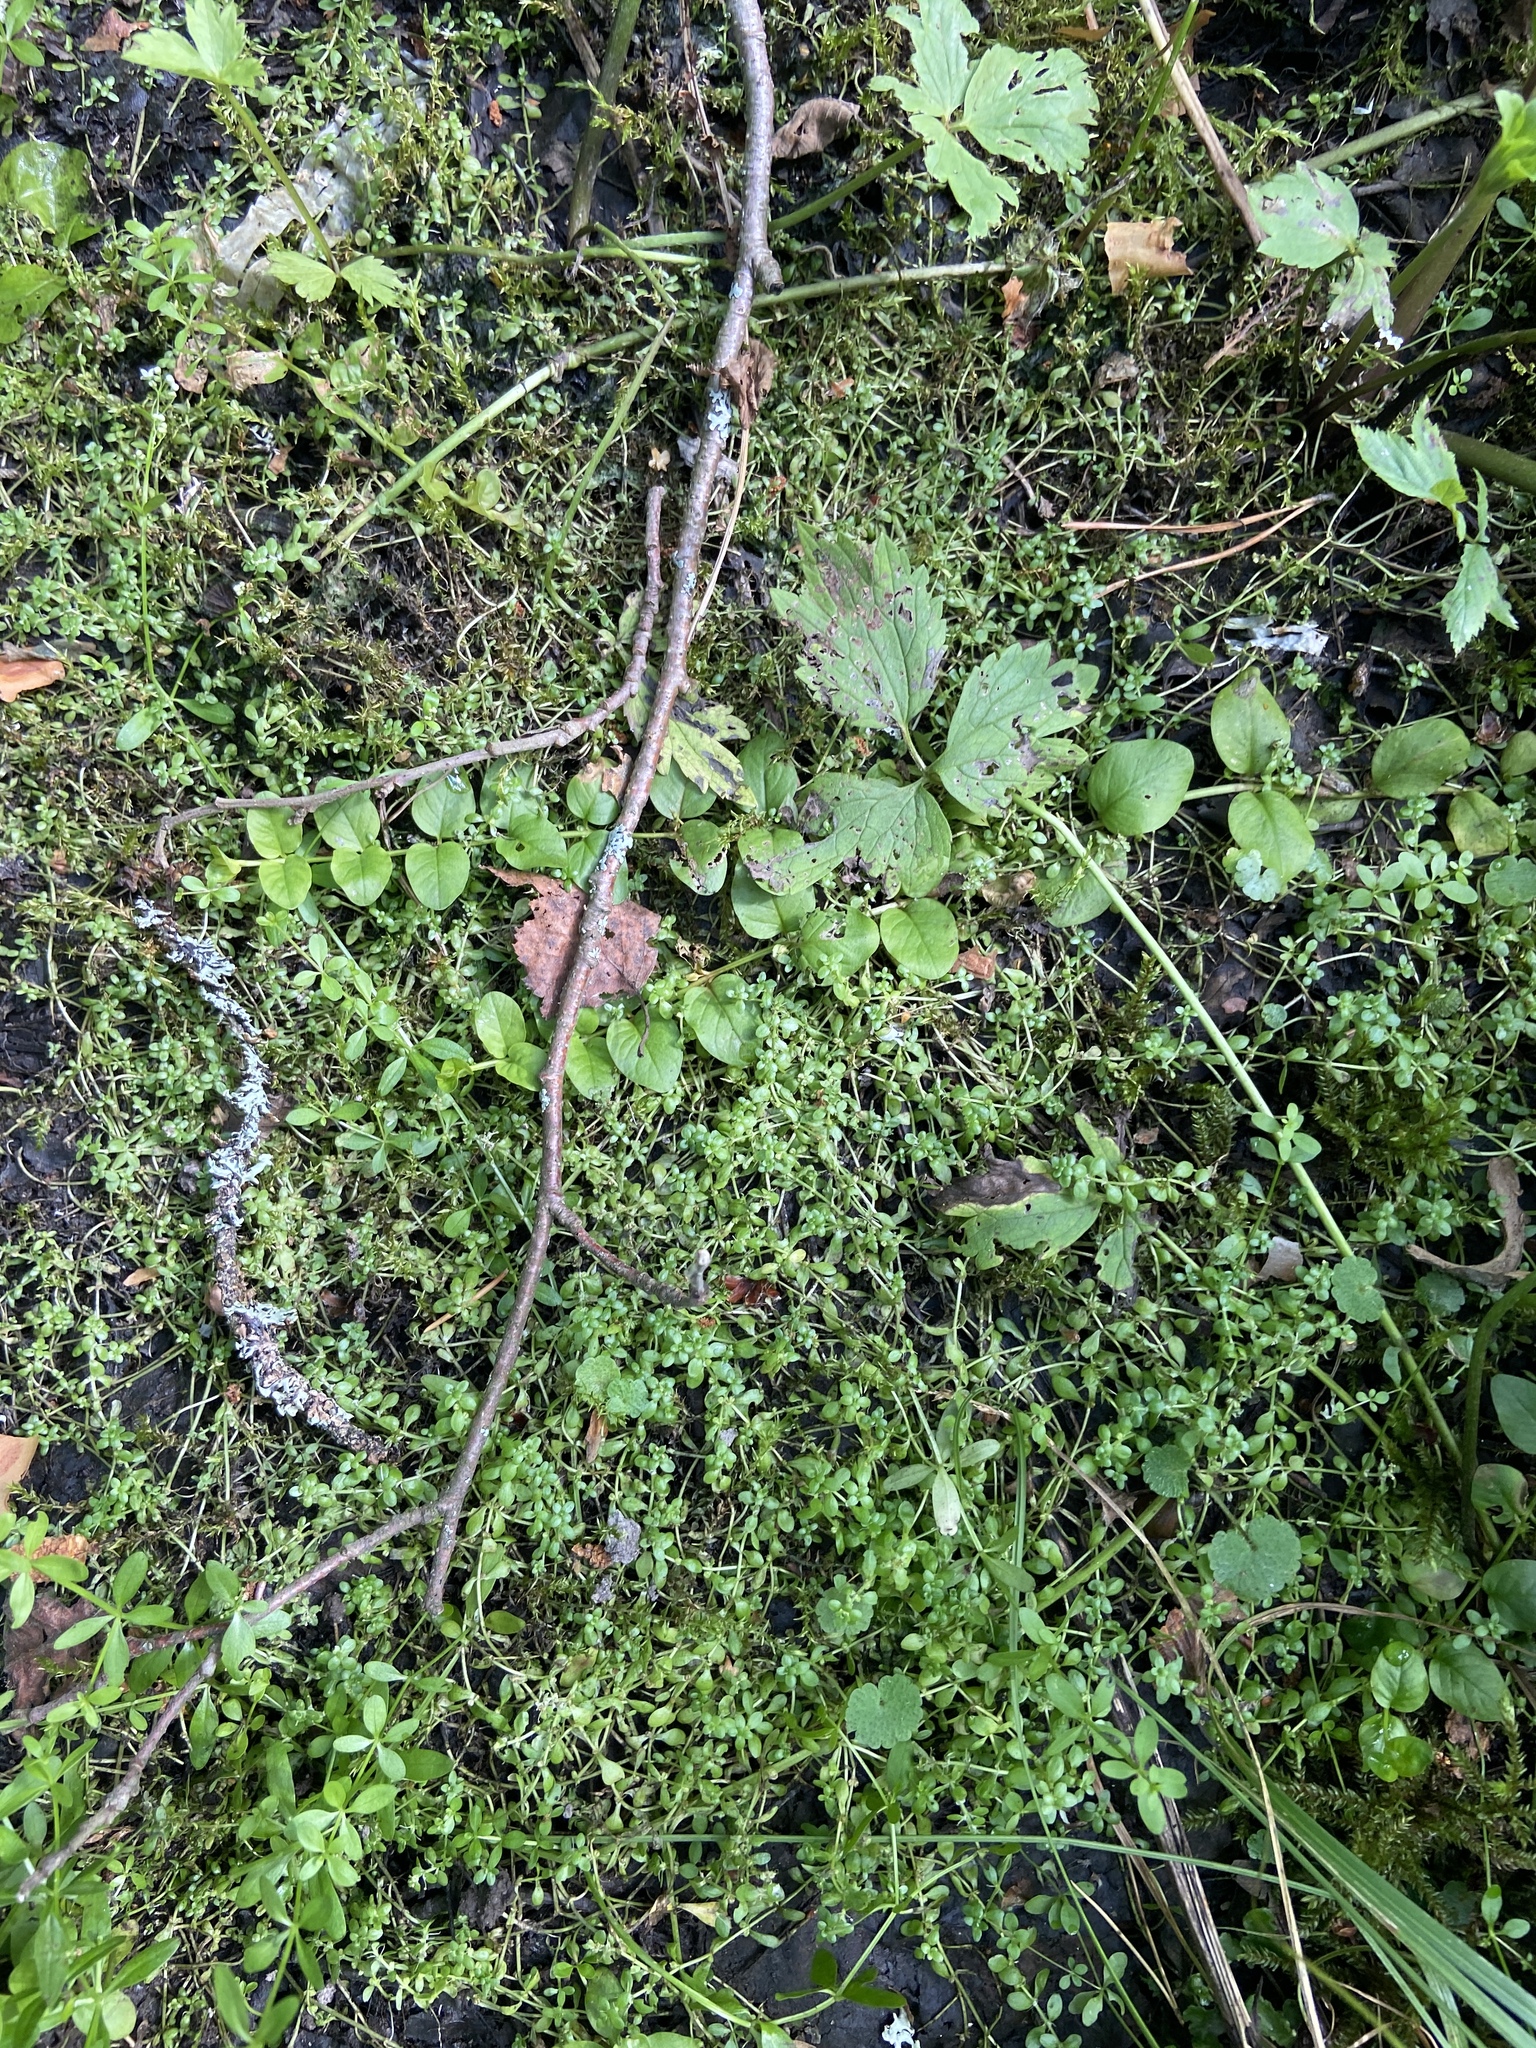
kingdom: Plantae
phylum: Tracheophyta
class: Magnoliopsida
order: Ericales
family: Primulaceae
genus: Lysimachia
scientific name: Lysimachia nummularia
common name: Moneywort
